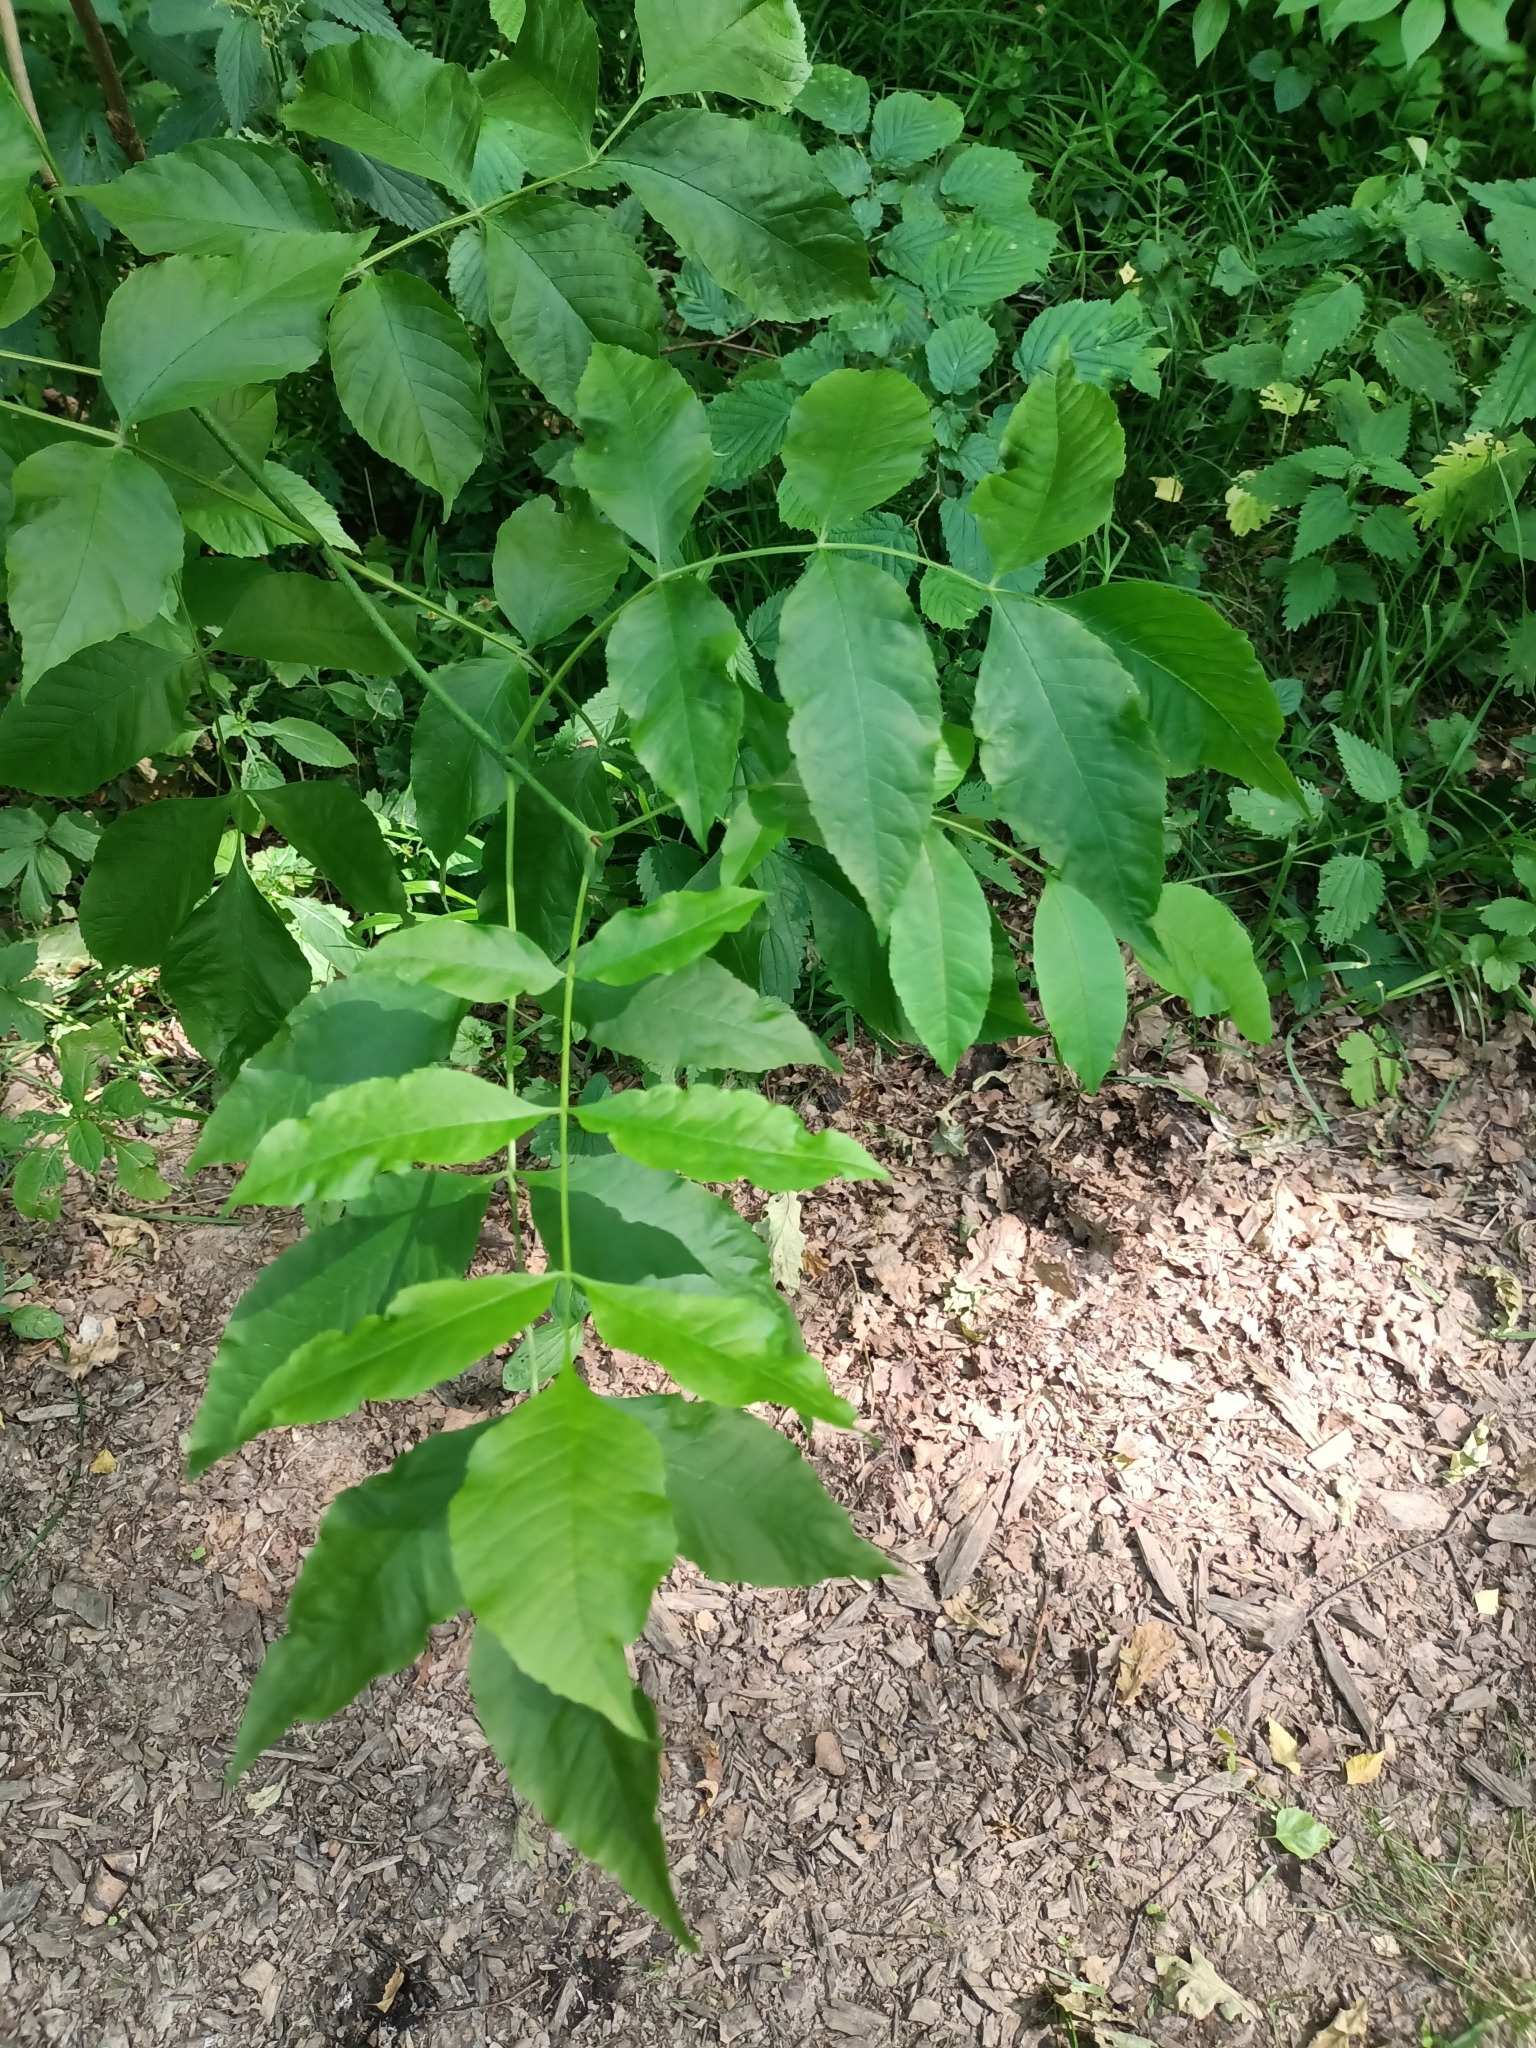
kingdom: Plantae
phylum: Tracheophyta
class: Magnoliopsida
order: Lamiales
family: Oleaceae
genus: Fraxinus
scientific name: Fraxinus pennsylvanica
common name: Green ash
